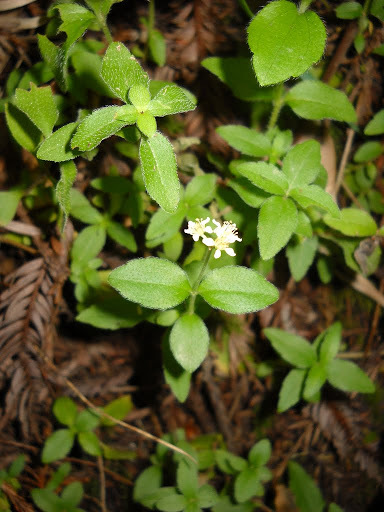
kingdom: Plantae
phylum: Tracheophyta
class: Magnoliopsida
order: Cornales
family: Hydrangeaceae
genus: Whipplea
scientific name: Whipplea modesta
